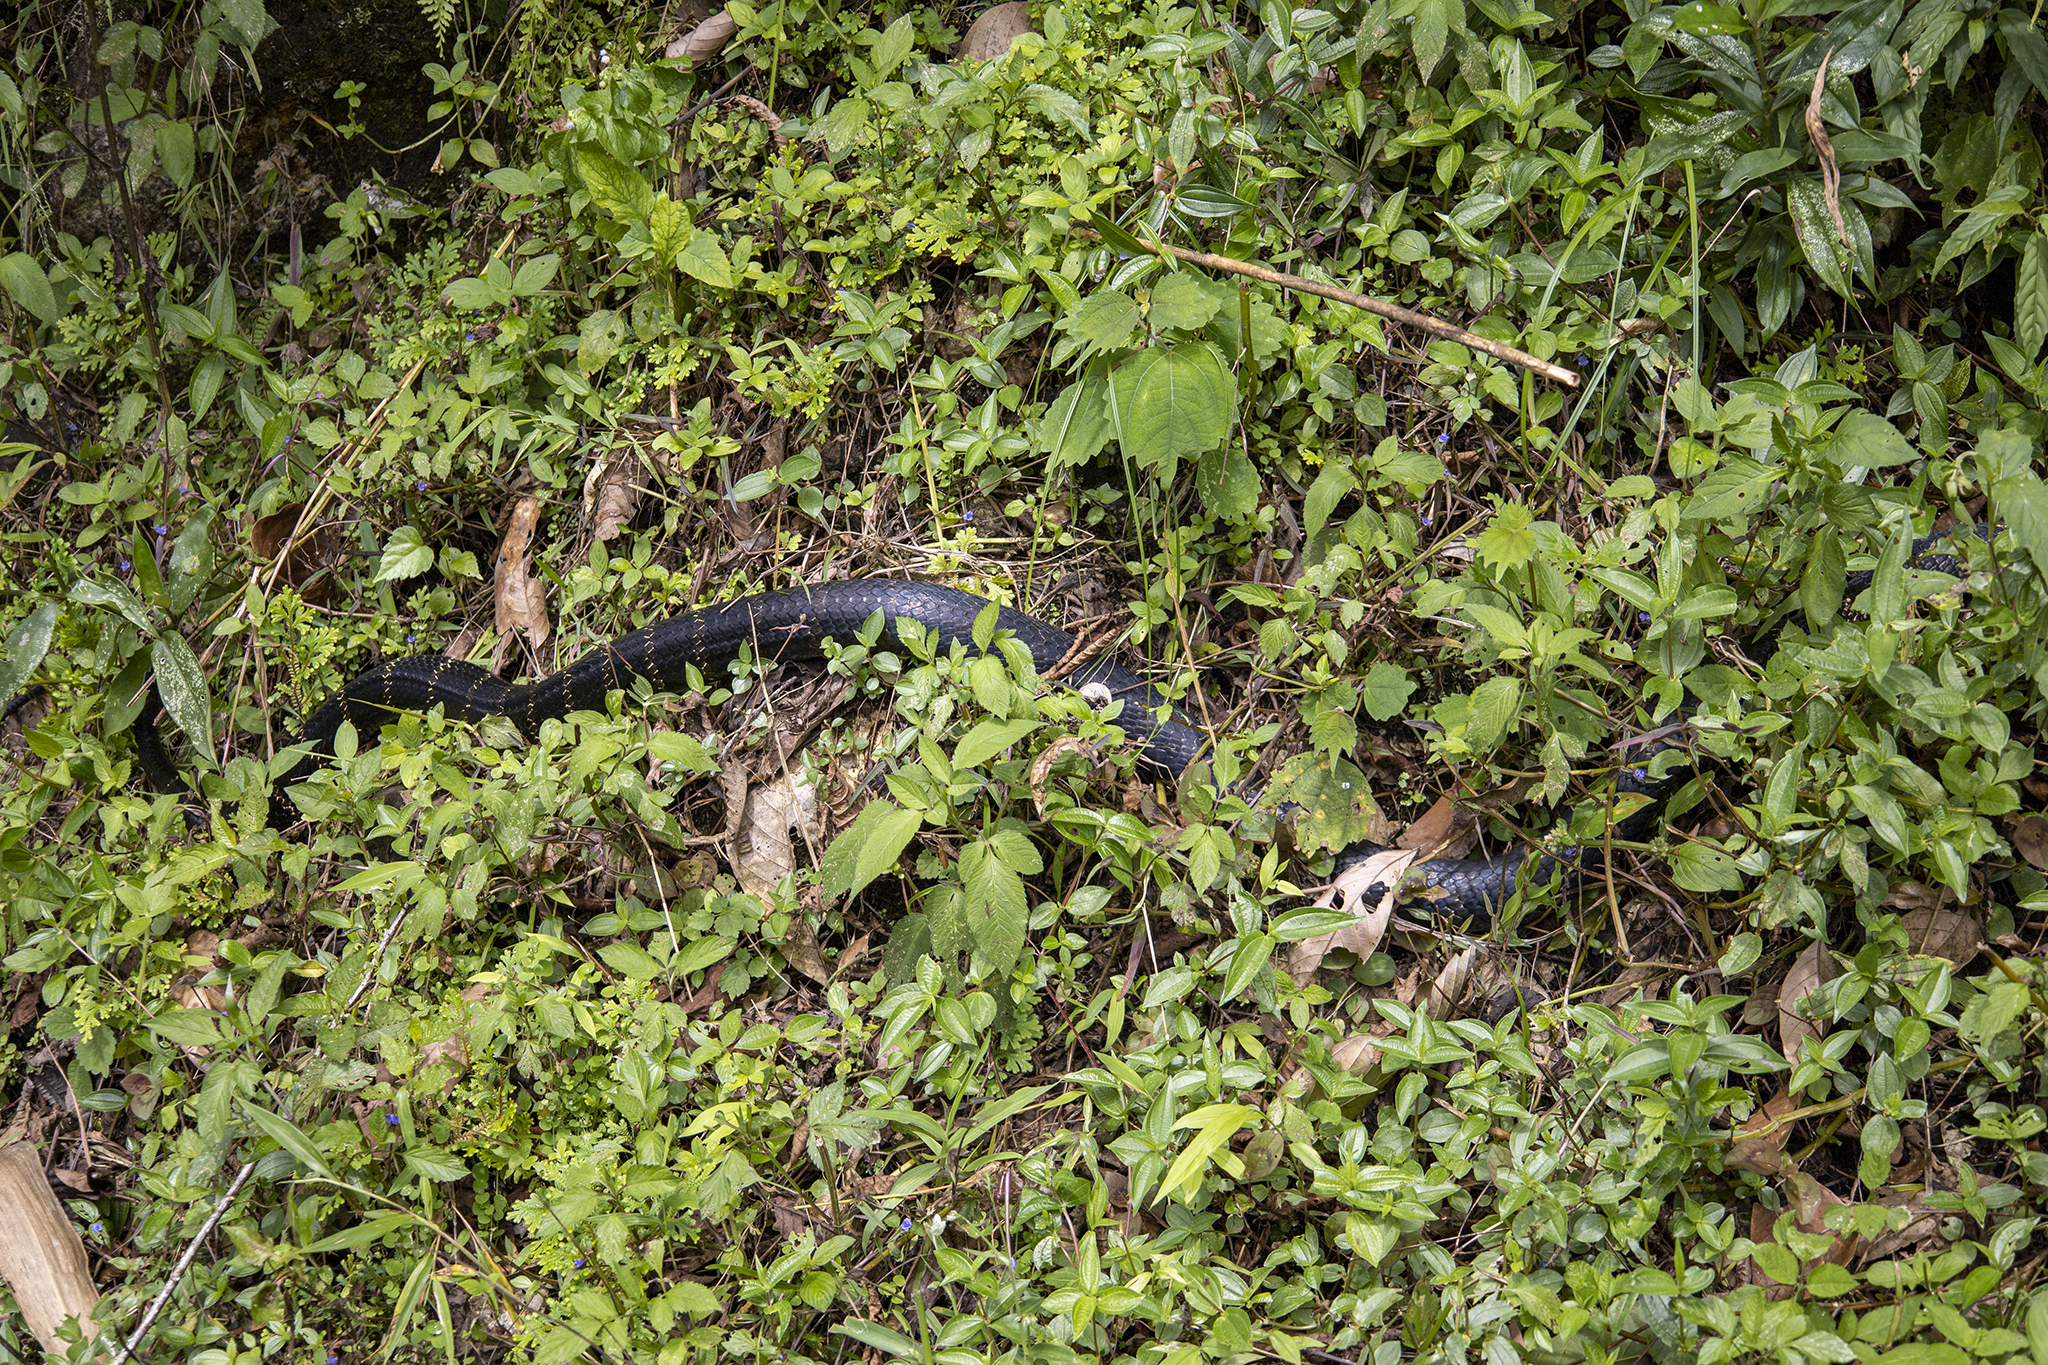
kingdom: Animalia
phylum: Chordata
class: Squamata
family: Elapidae
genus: Ophiophagus
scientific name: Ophiophagus hannah
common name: Hamadryad
